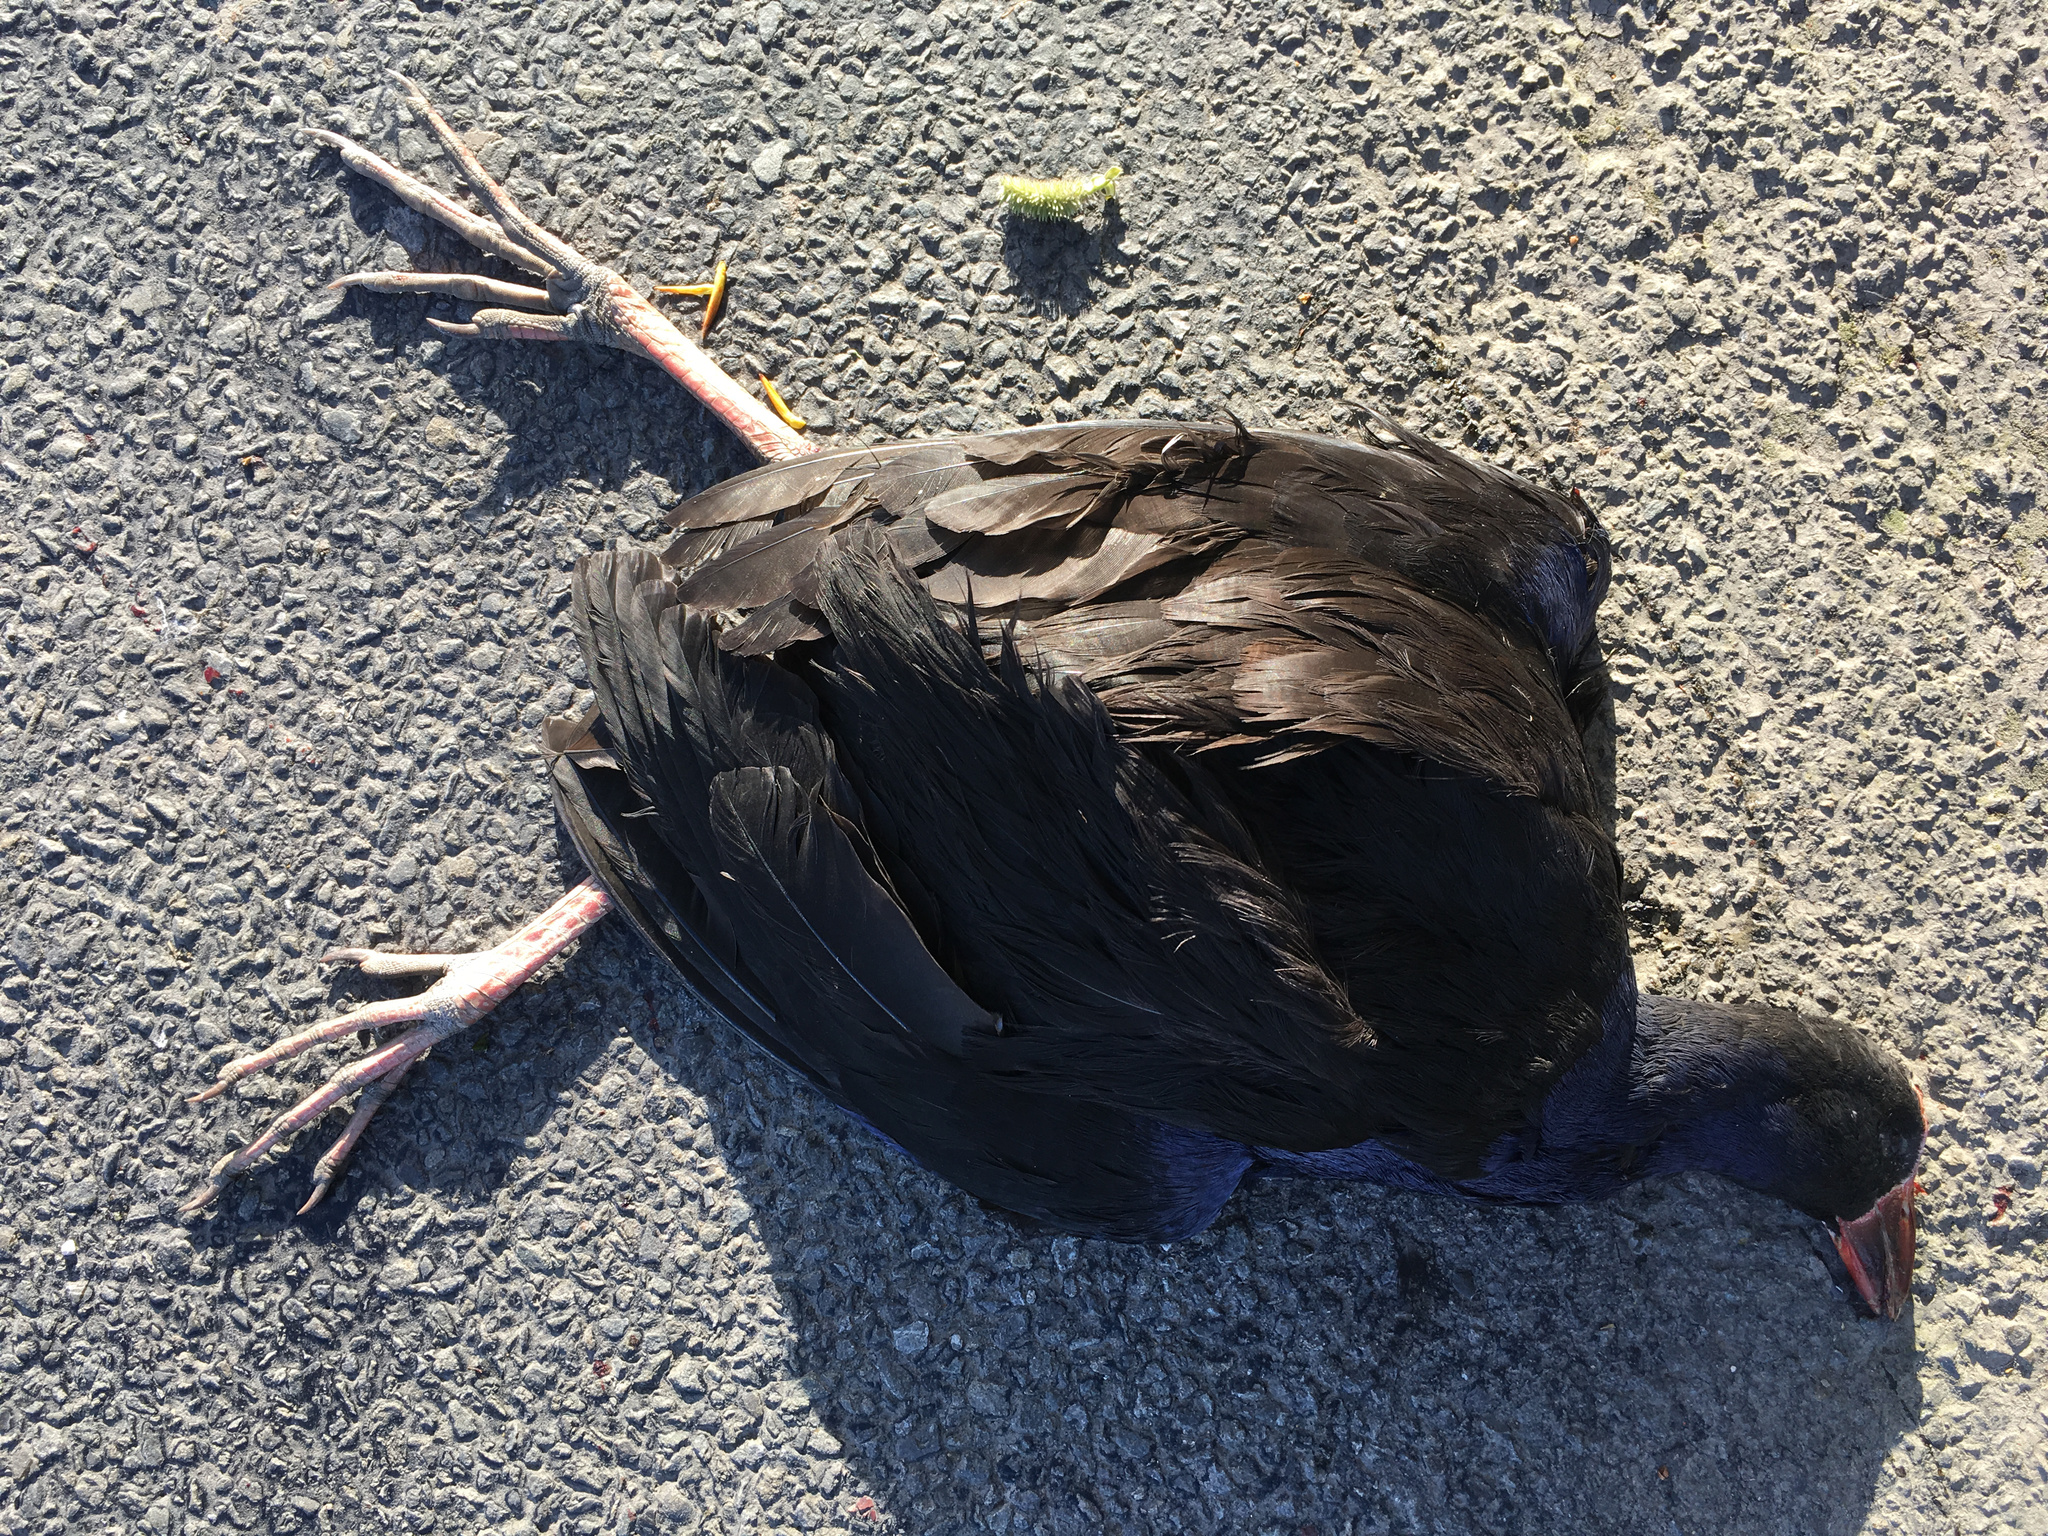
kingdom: Animalia
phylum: Chordata
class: Aves
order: Gruiformes
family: Rallidae
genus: Porphyrio
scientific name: Porphyrio melanotus
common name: Australasian swamphen
